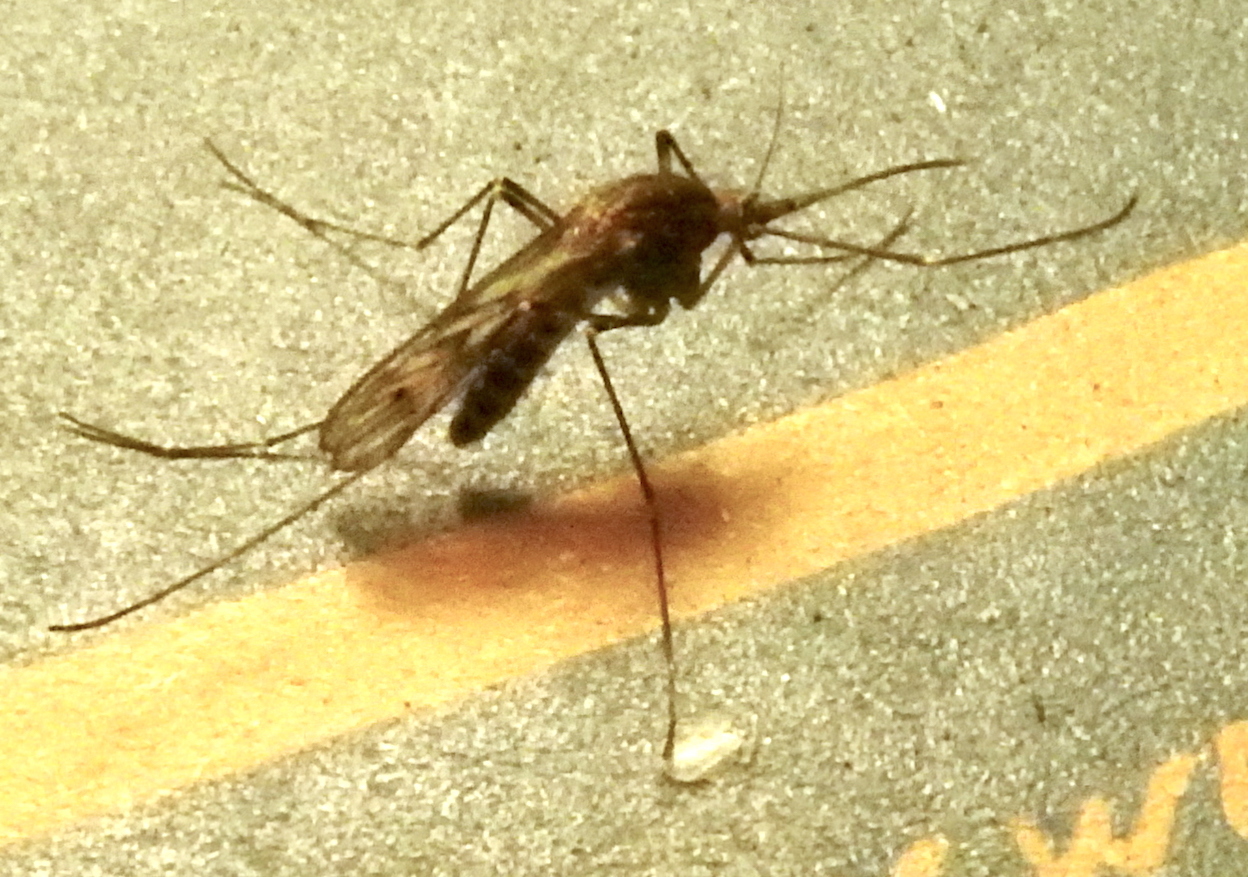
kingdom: Animalia
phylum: Arthropoda
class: Insecta
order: Diptera
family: Culicidae
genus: Culiseta
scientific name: Culiseta incidens
